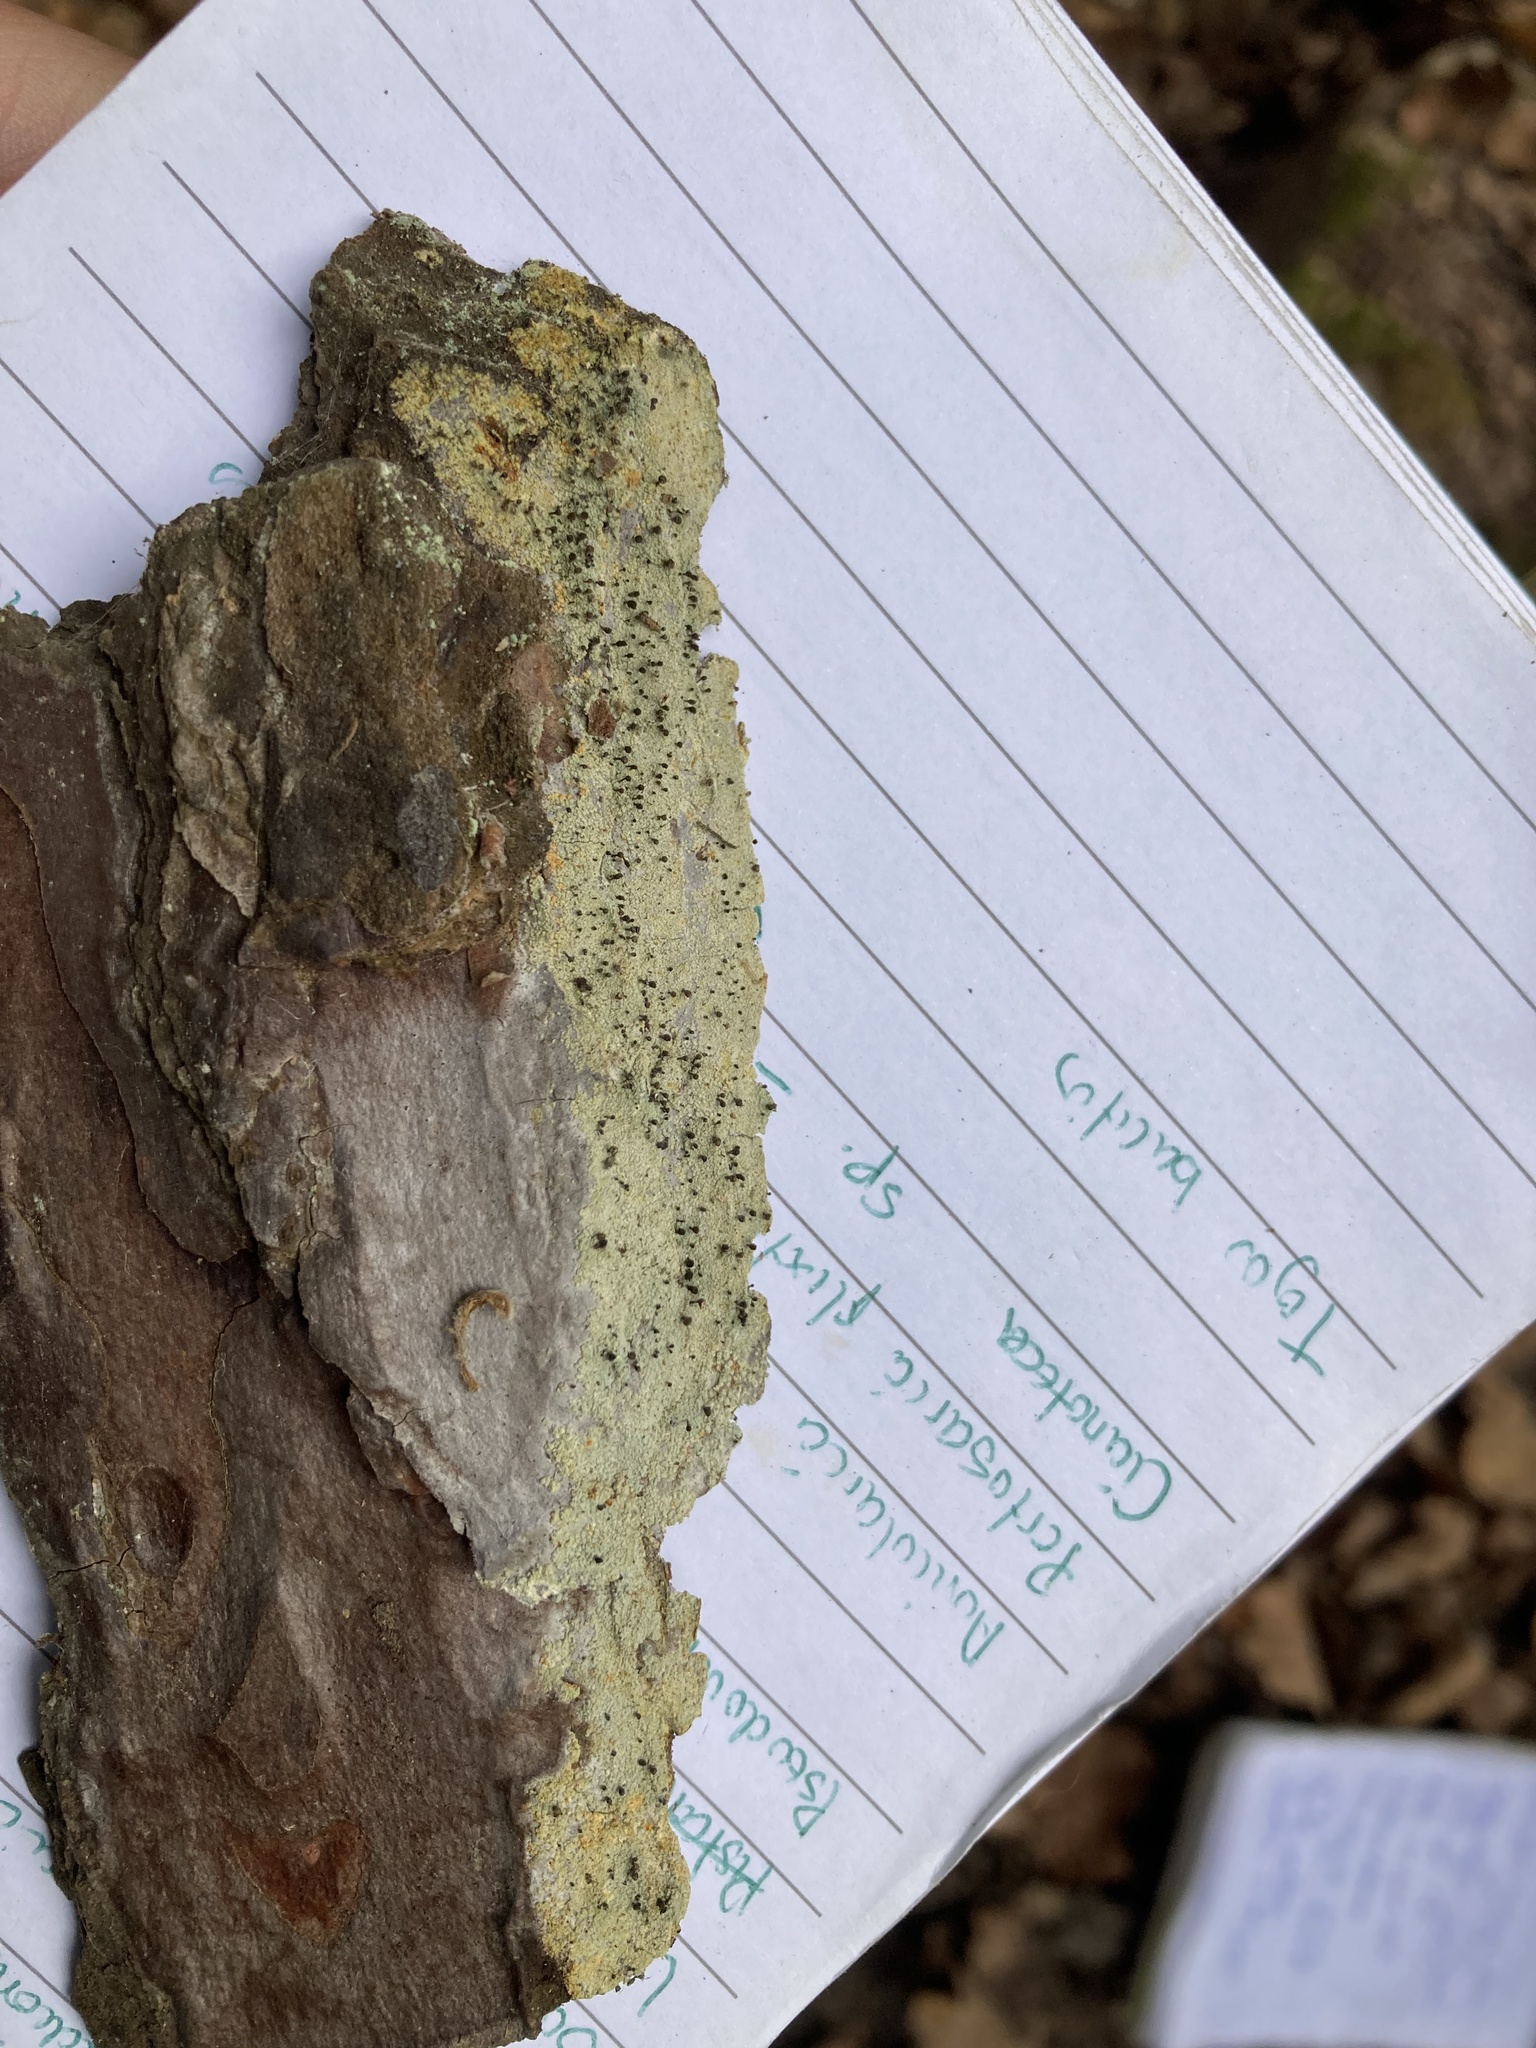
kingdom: Fungi
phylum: Ascomycota
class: Coniocybomycetes
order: Coniocybales
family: Coniocybaceae
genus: Chaenotheca
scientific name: Chaenotheca ferruginea
